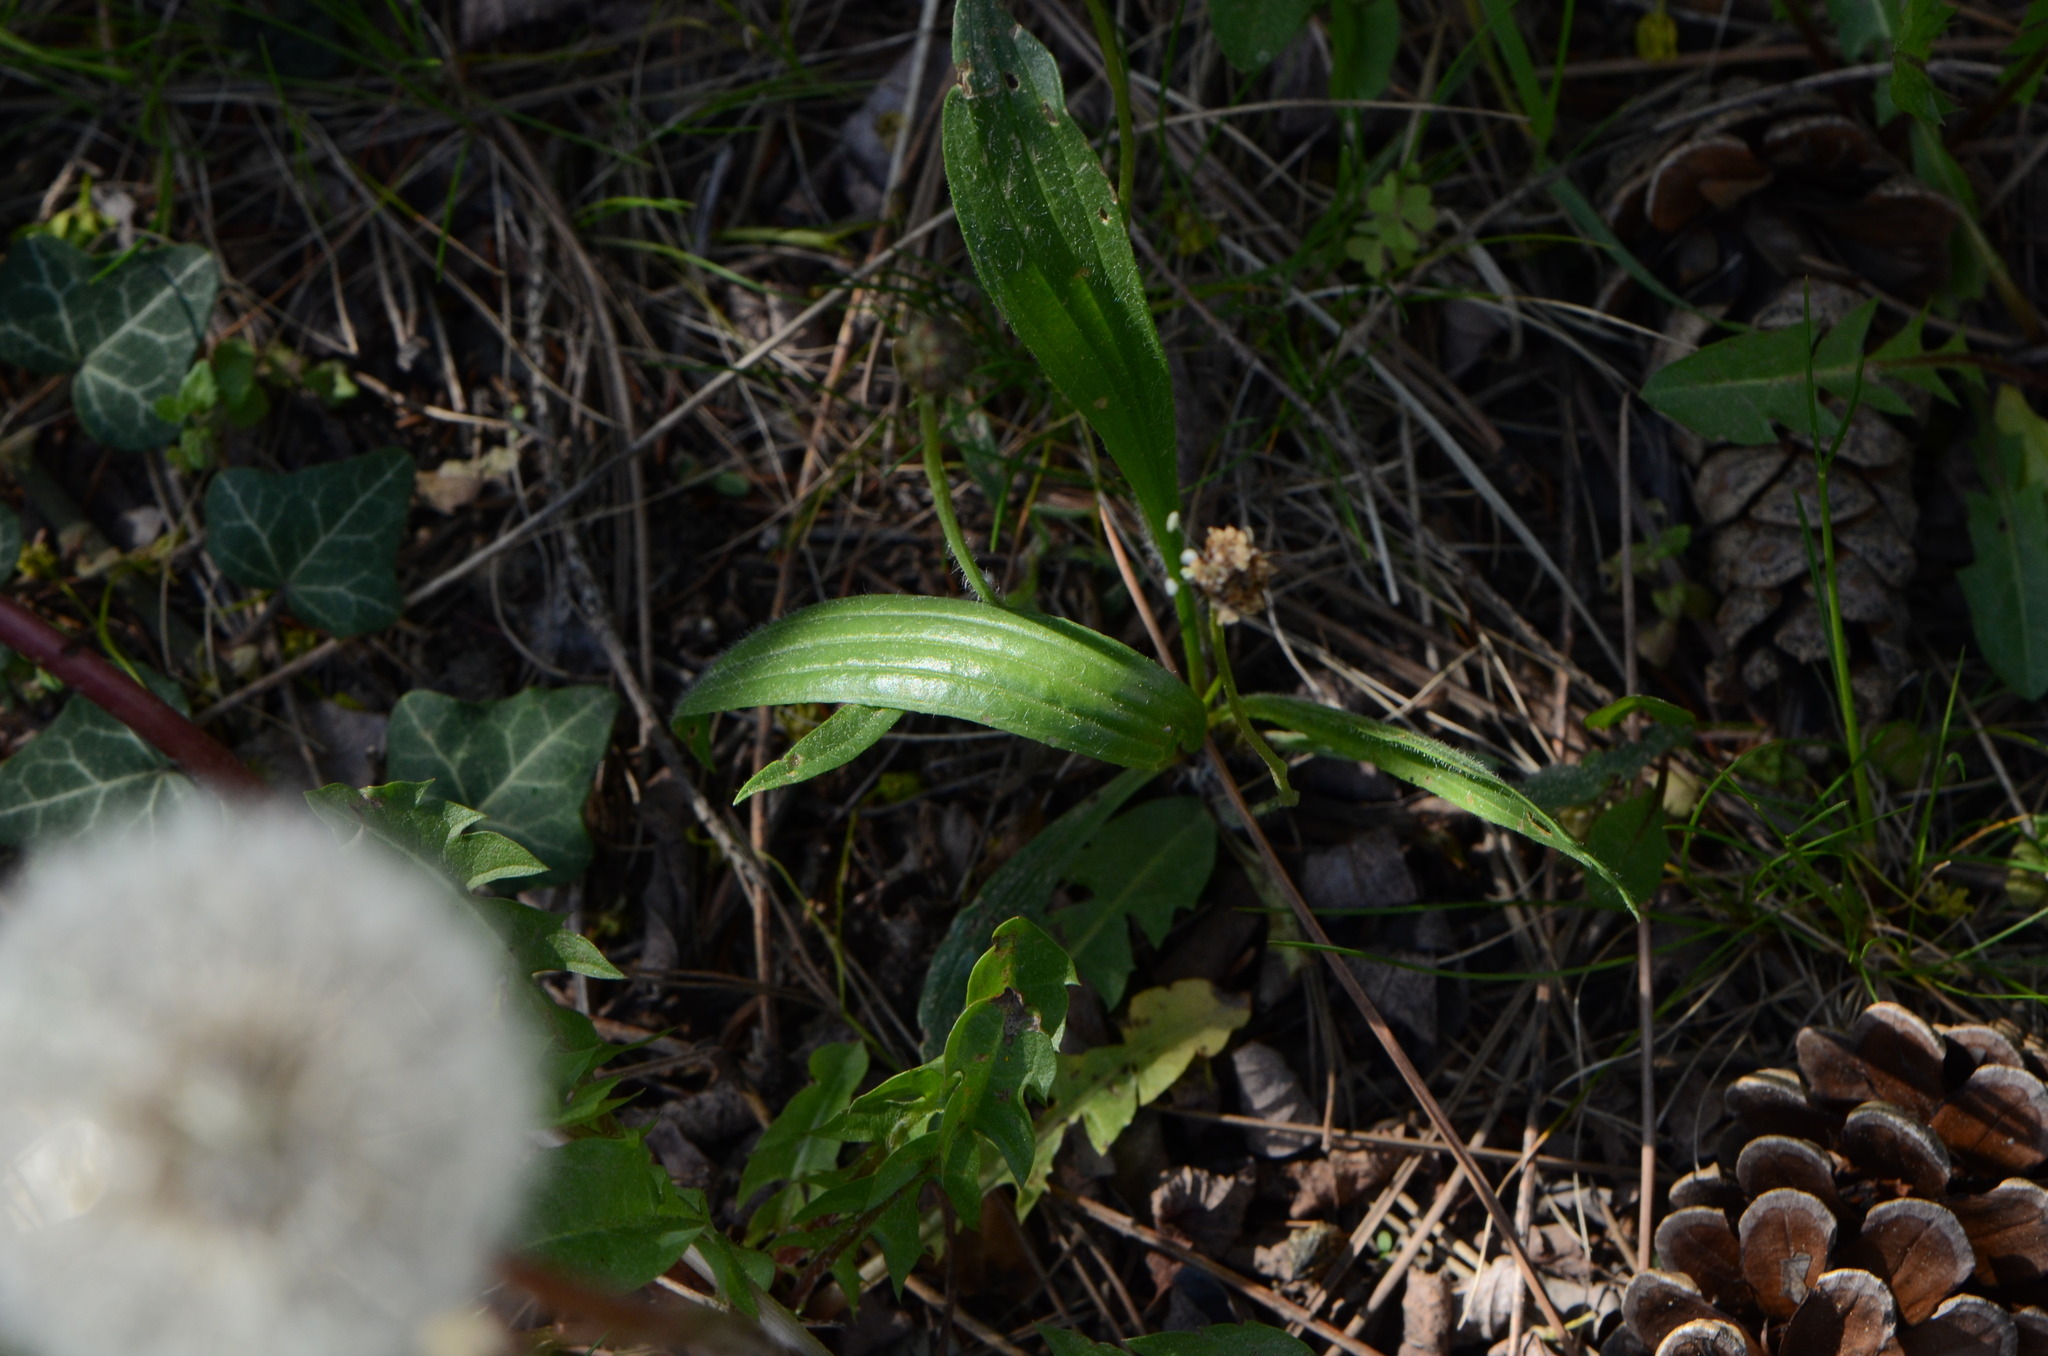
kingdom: Plantae
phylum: Tracheophyta
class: Magnoliopsida
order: Lamiales
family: Plantaginaceae
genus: Plantago
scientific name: Plantago lanceolata
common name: Ribwort plantain
